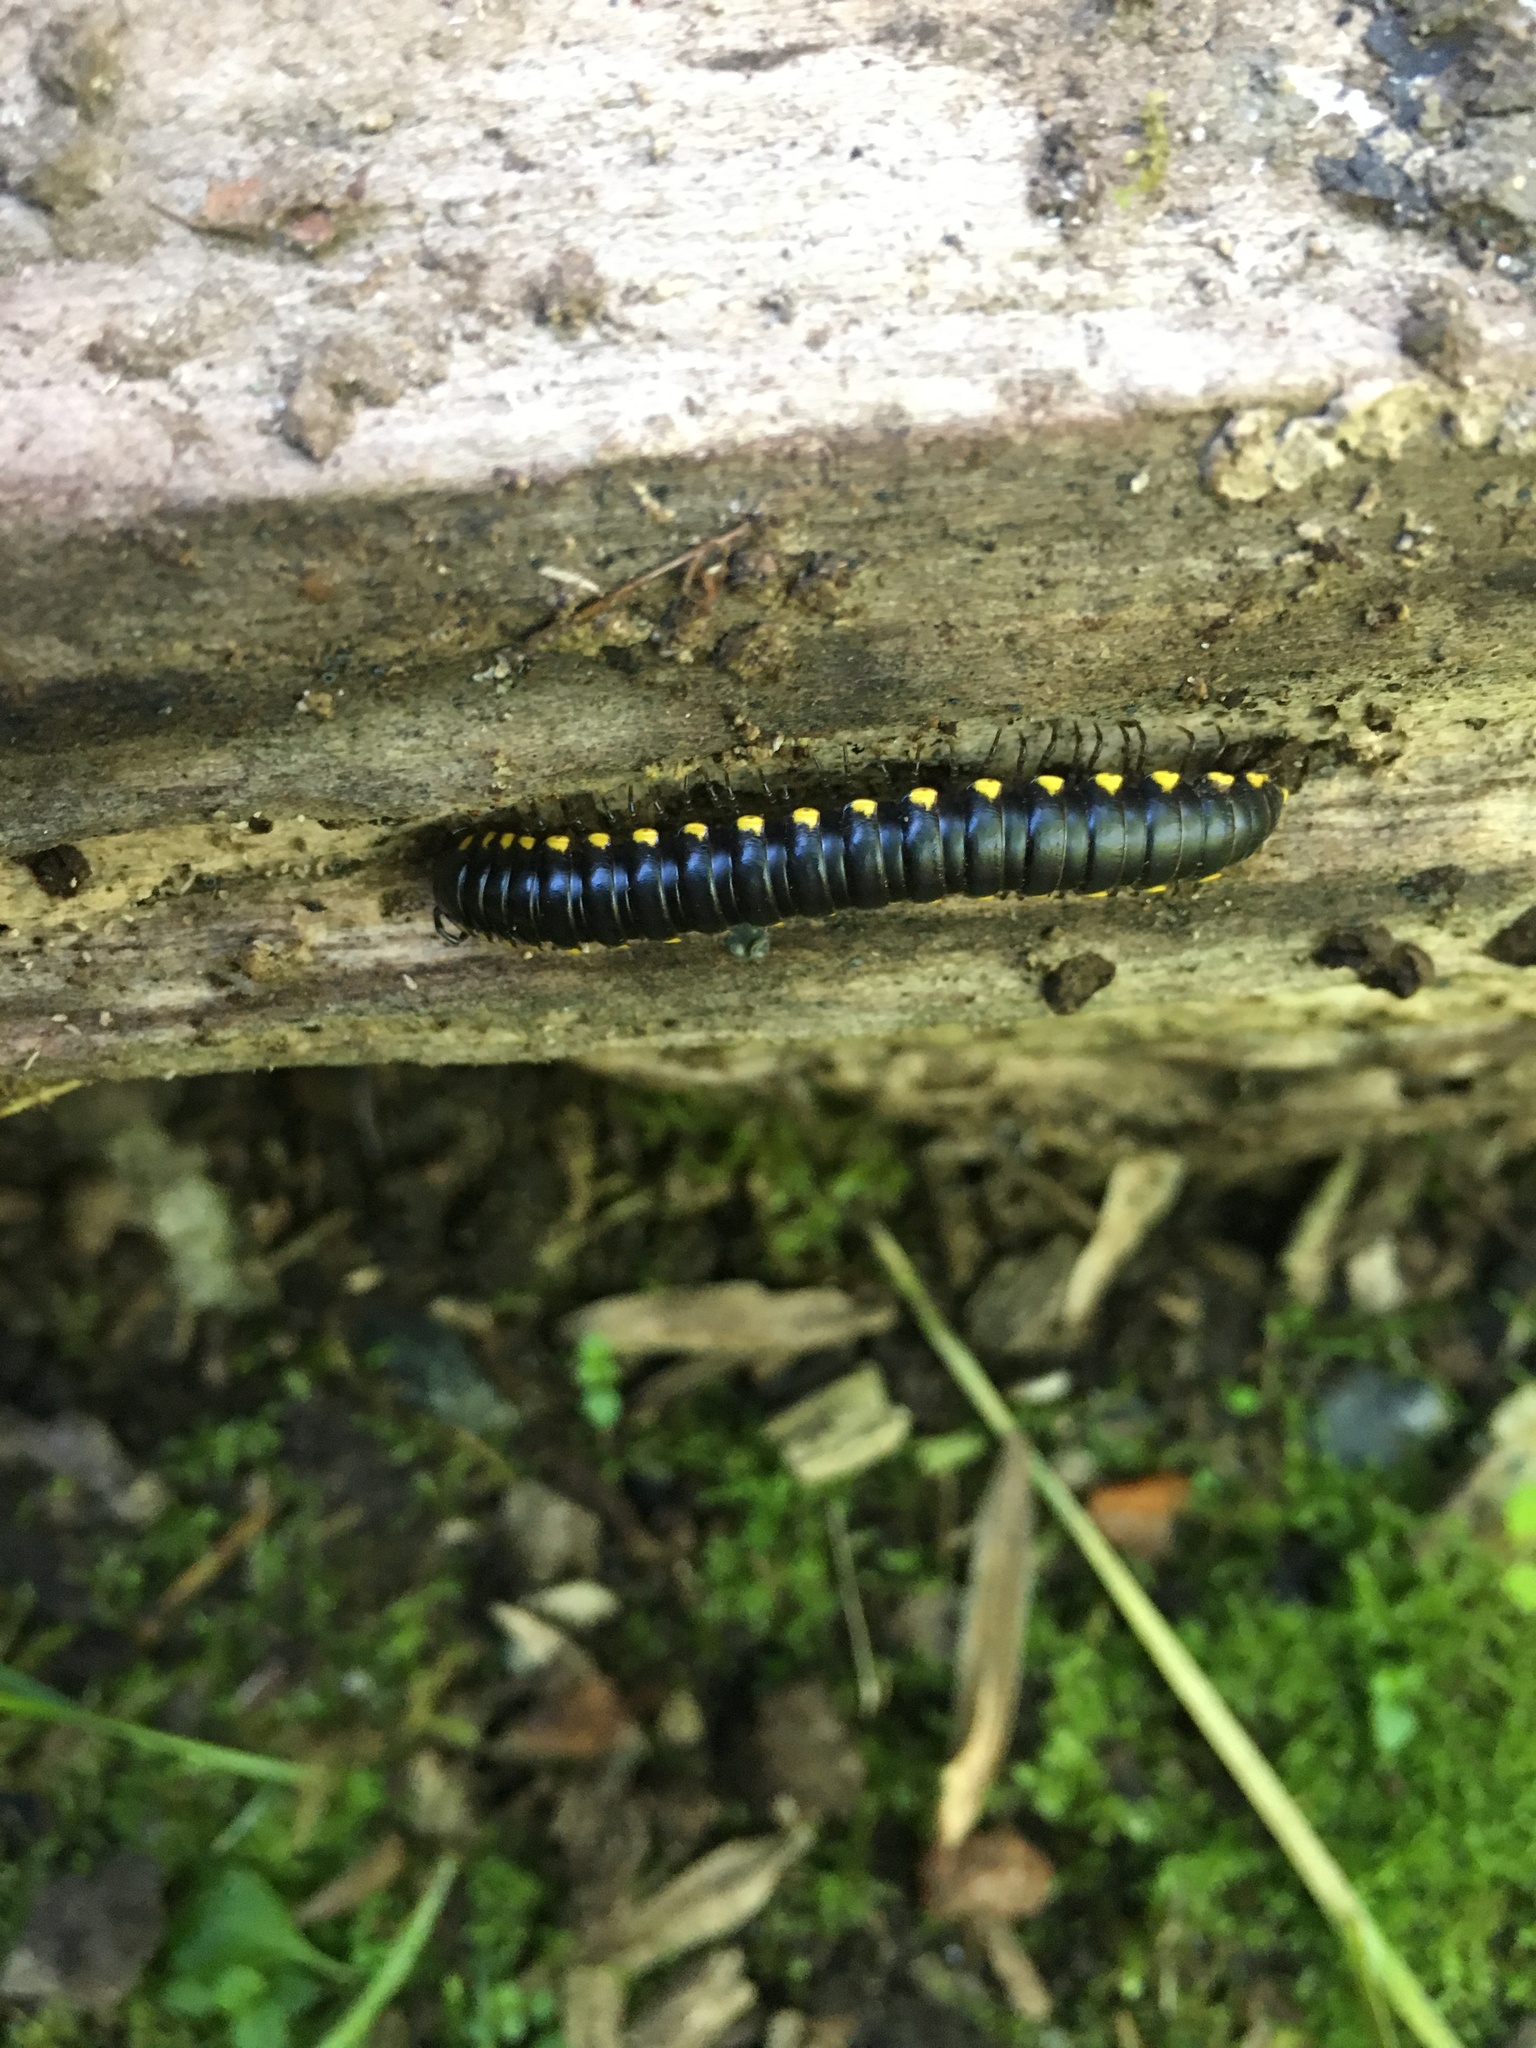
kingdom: Animalia
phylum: Arthropoda
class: Diplopoda
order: Polydesmida
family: Xystodesmidae
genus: Harpaphe
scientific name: Harpaphe haydeniana
